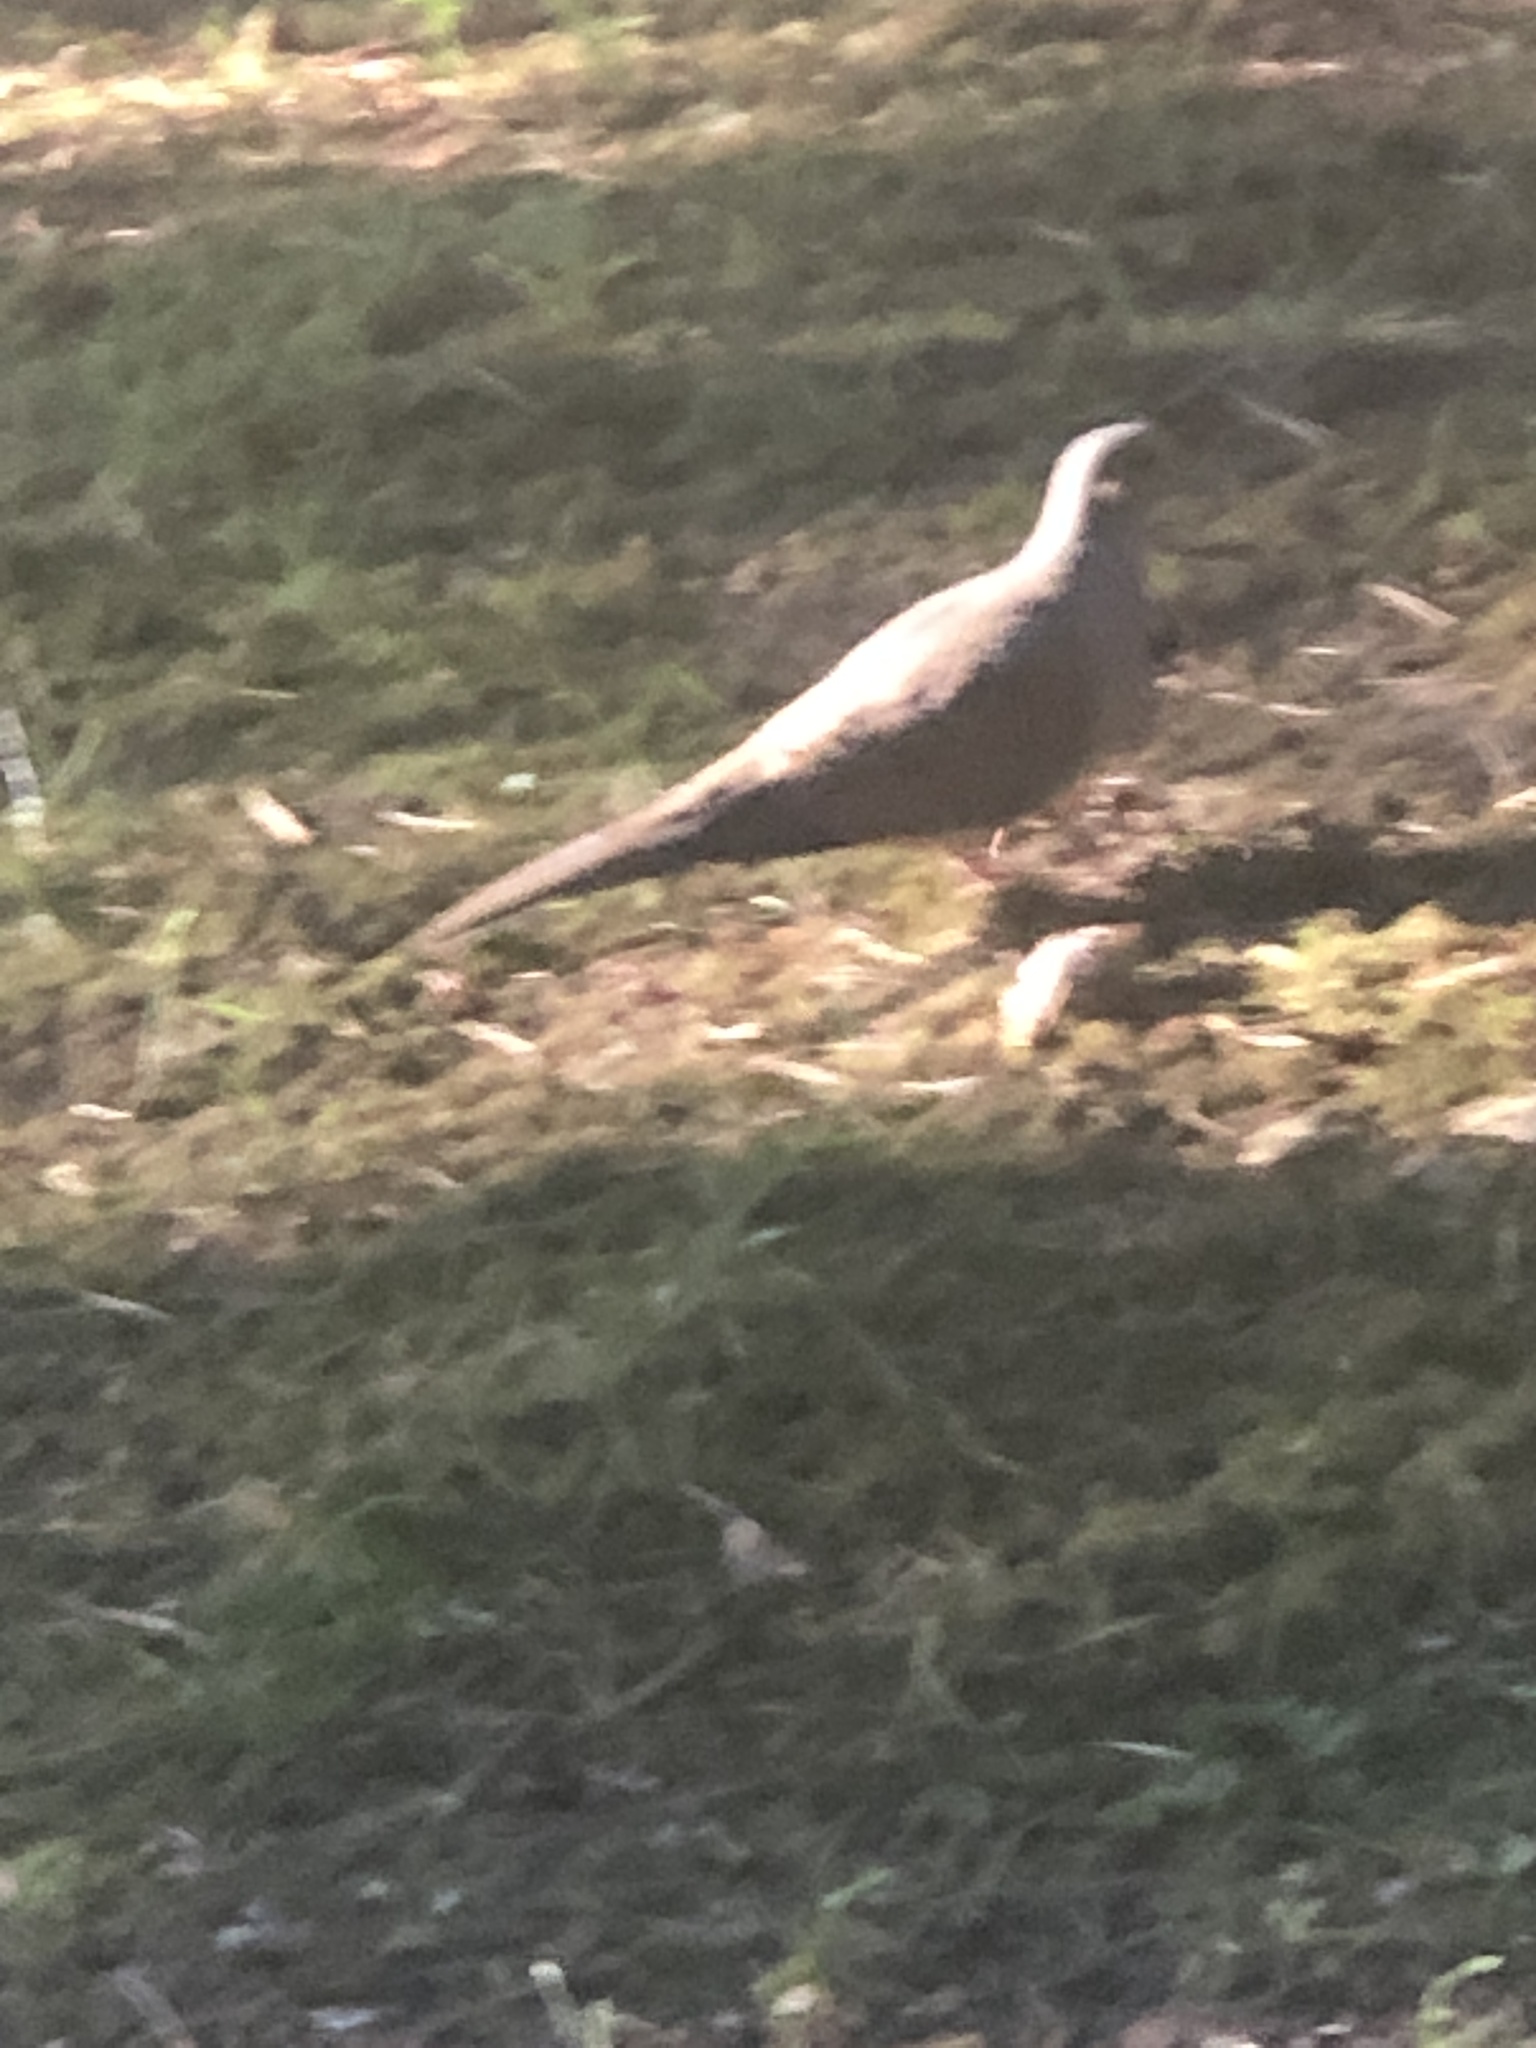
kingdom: Animalia
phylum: Chordata
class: Aves
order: Columbiformes
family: Columbidae
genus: Zenaida
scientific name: Zenaida macroura
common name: Mourning dove
